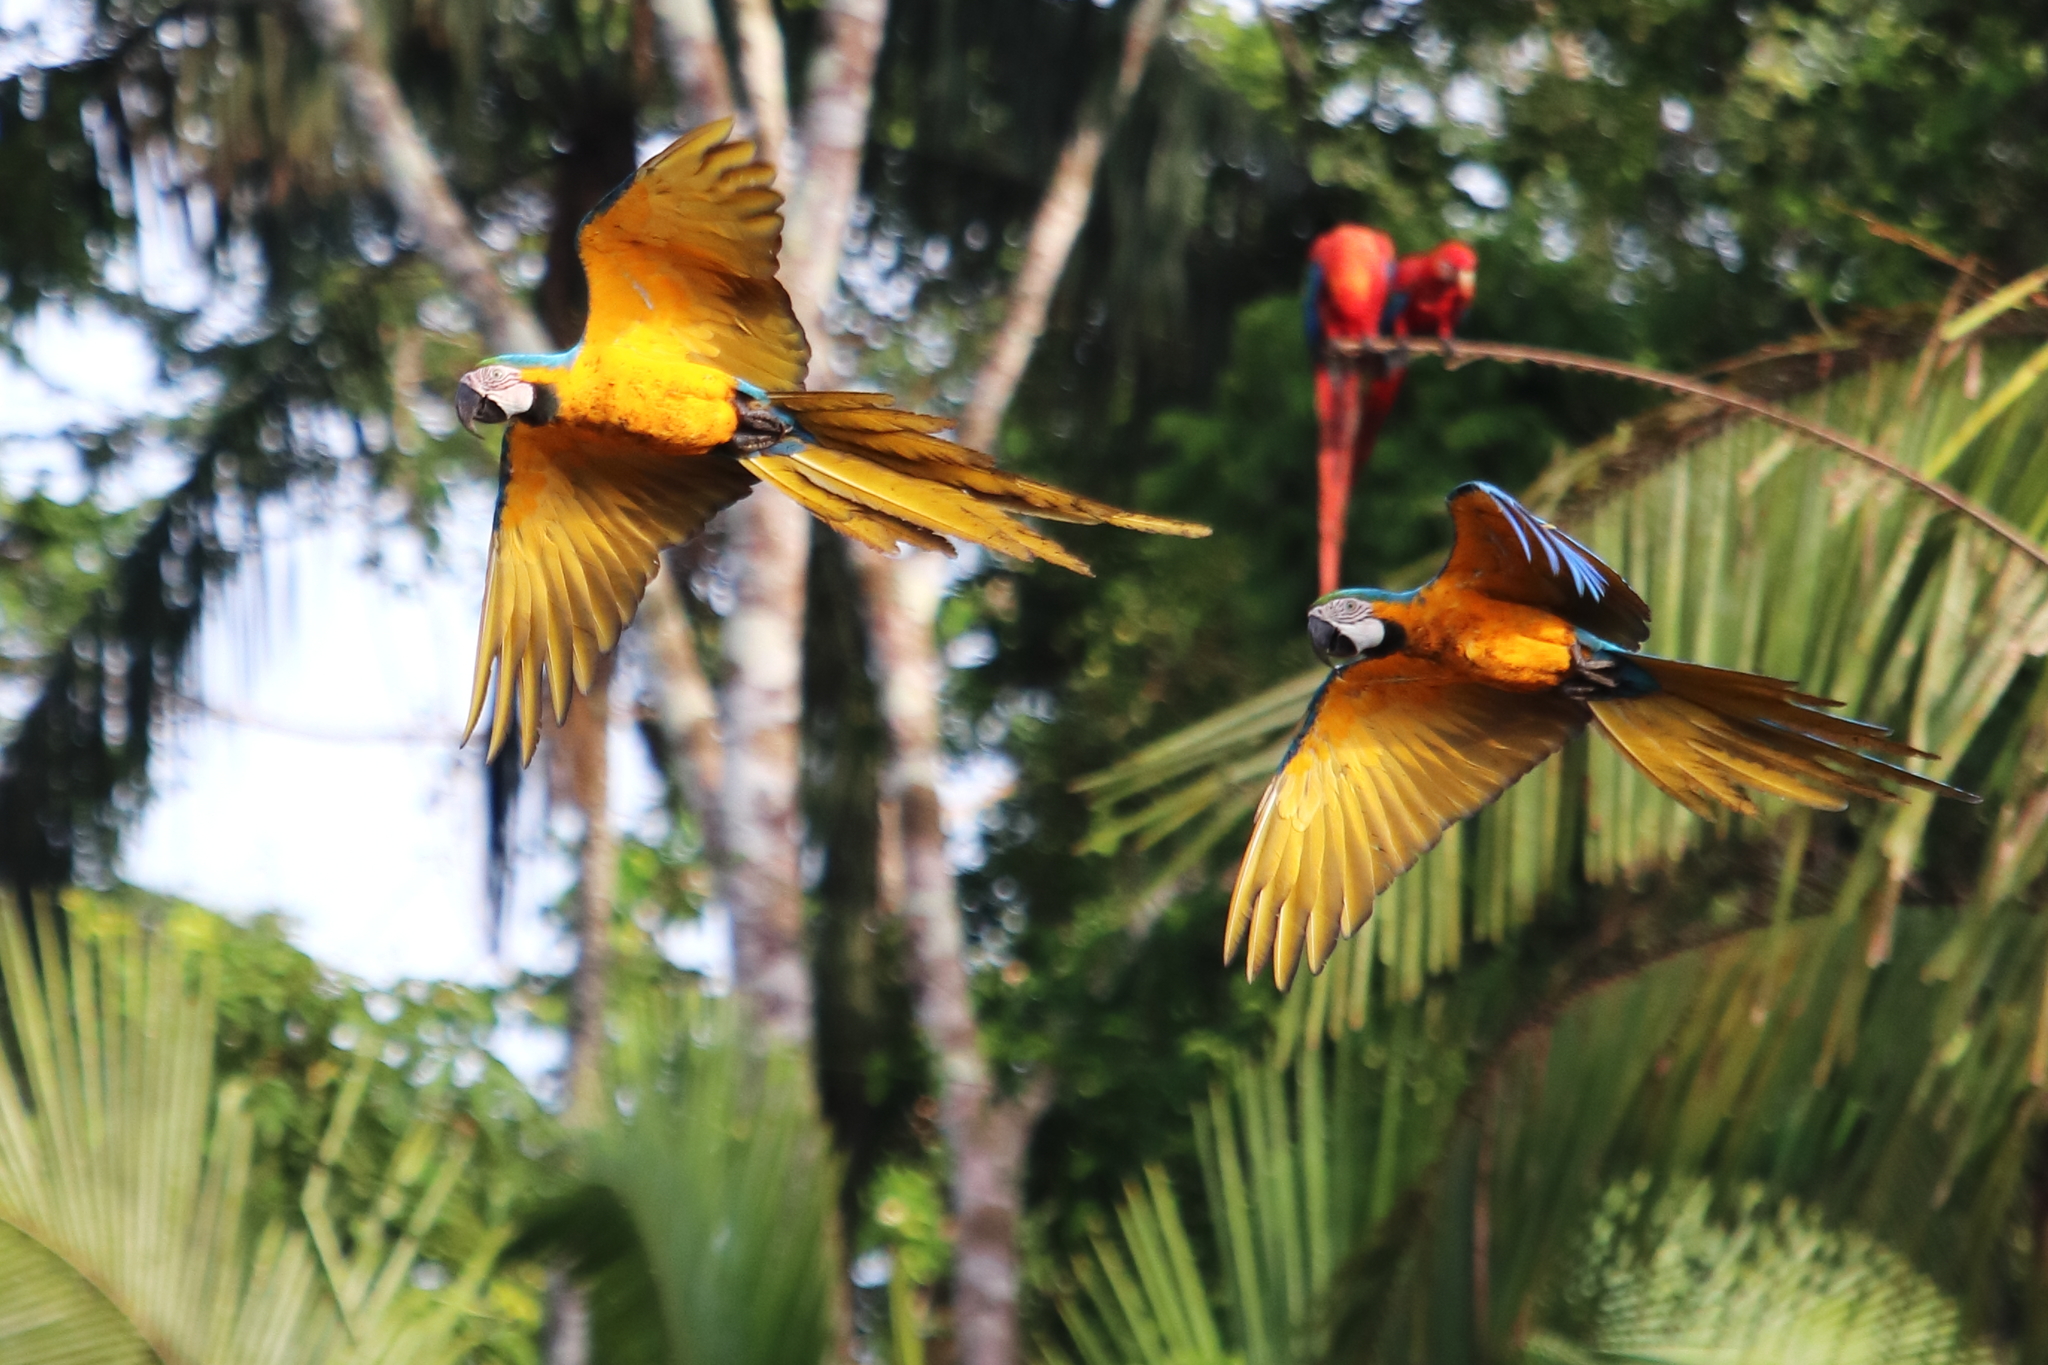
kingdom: Animalia
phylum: Chordata
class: Aves
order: Psittaciformes
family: Psittacidae
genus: Ara
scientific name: Ara ararauna
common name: Blue-and-yellow macaw
